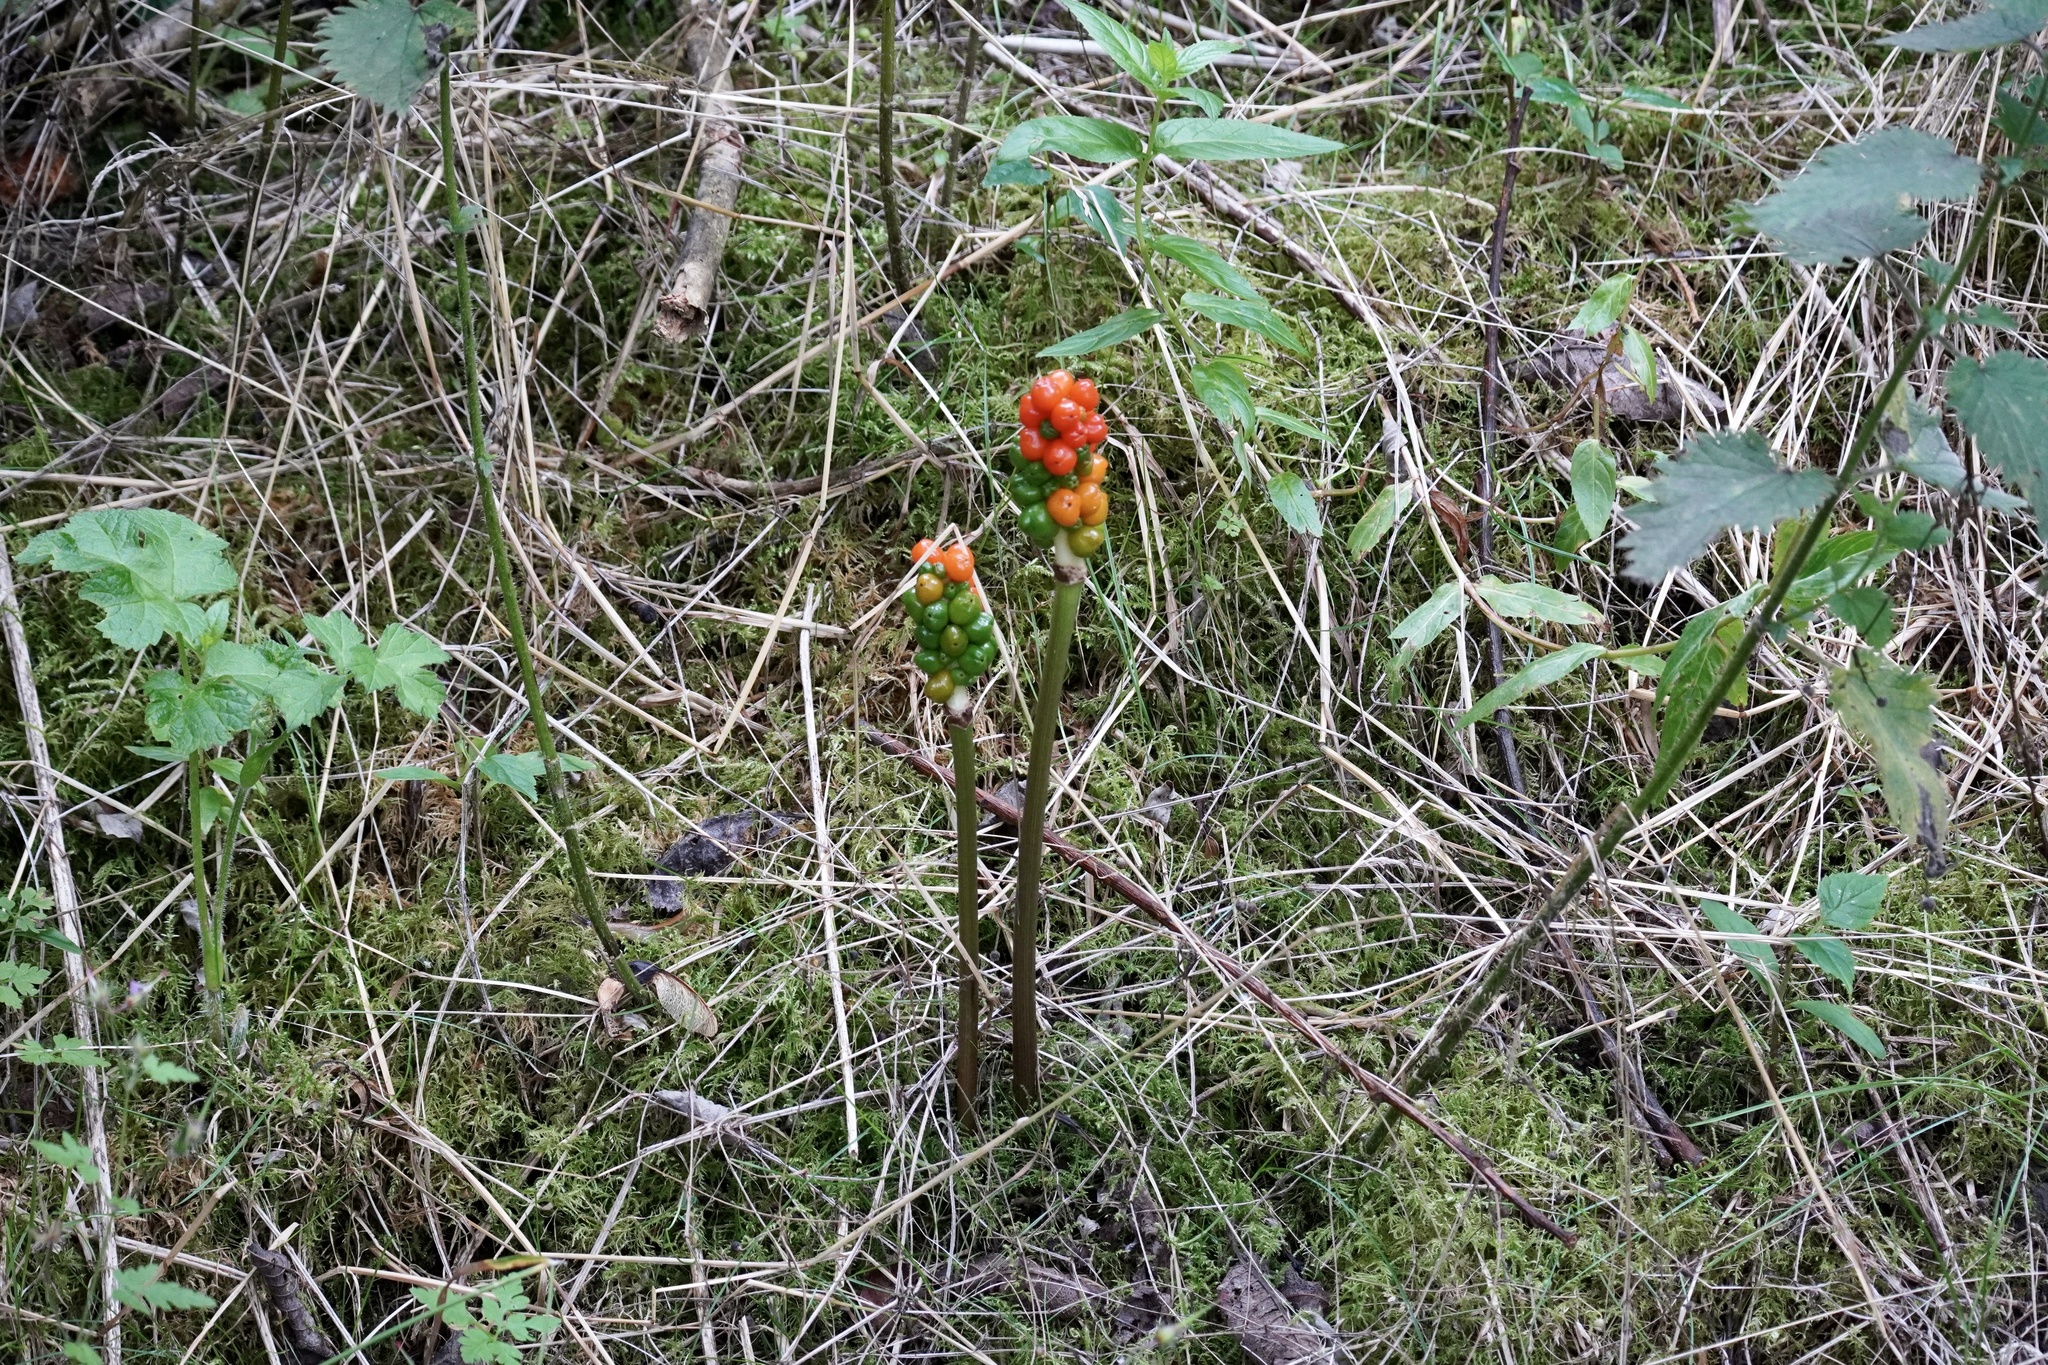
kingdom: Plantae
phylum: Tracheophyta
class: Liliopsida
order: Alismatales
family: Araceae
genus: Arum
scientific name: Arum maculatum
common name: Lords-and-ladies
